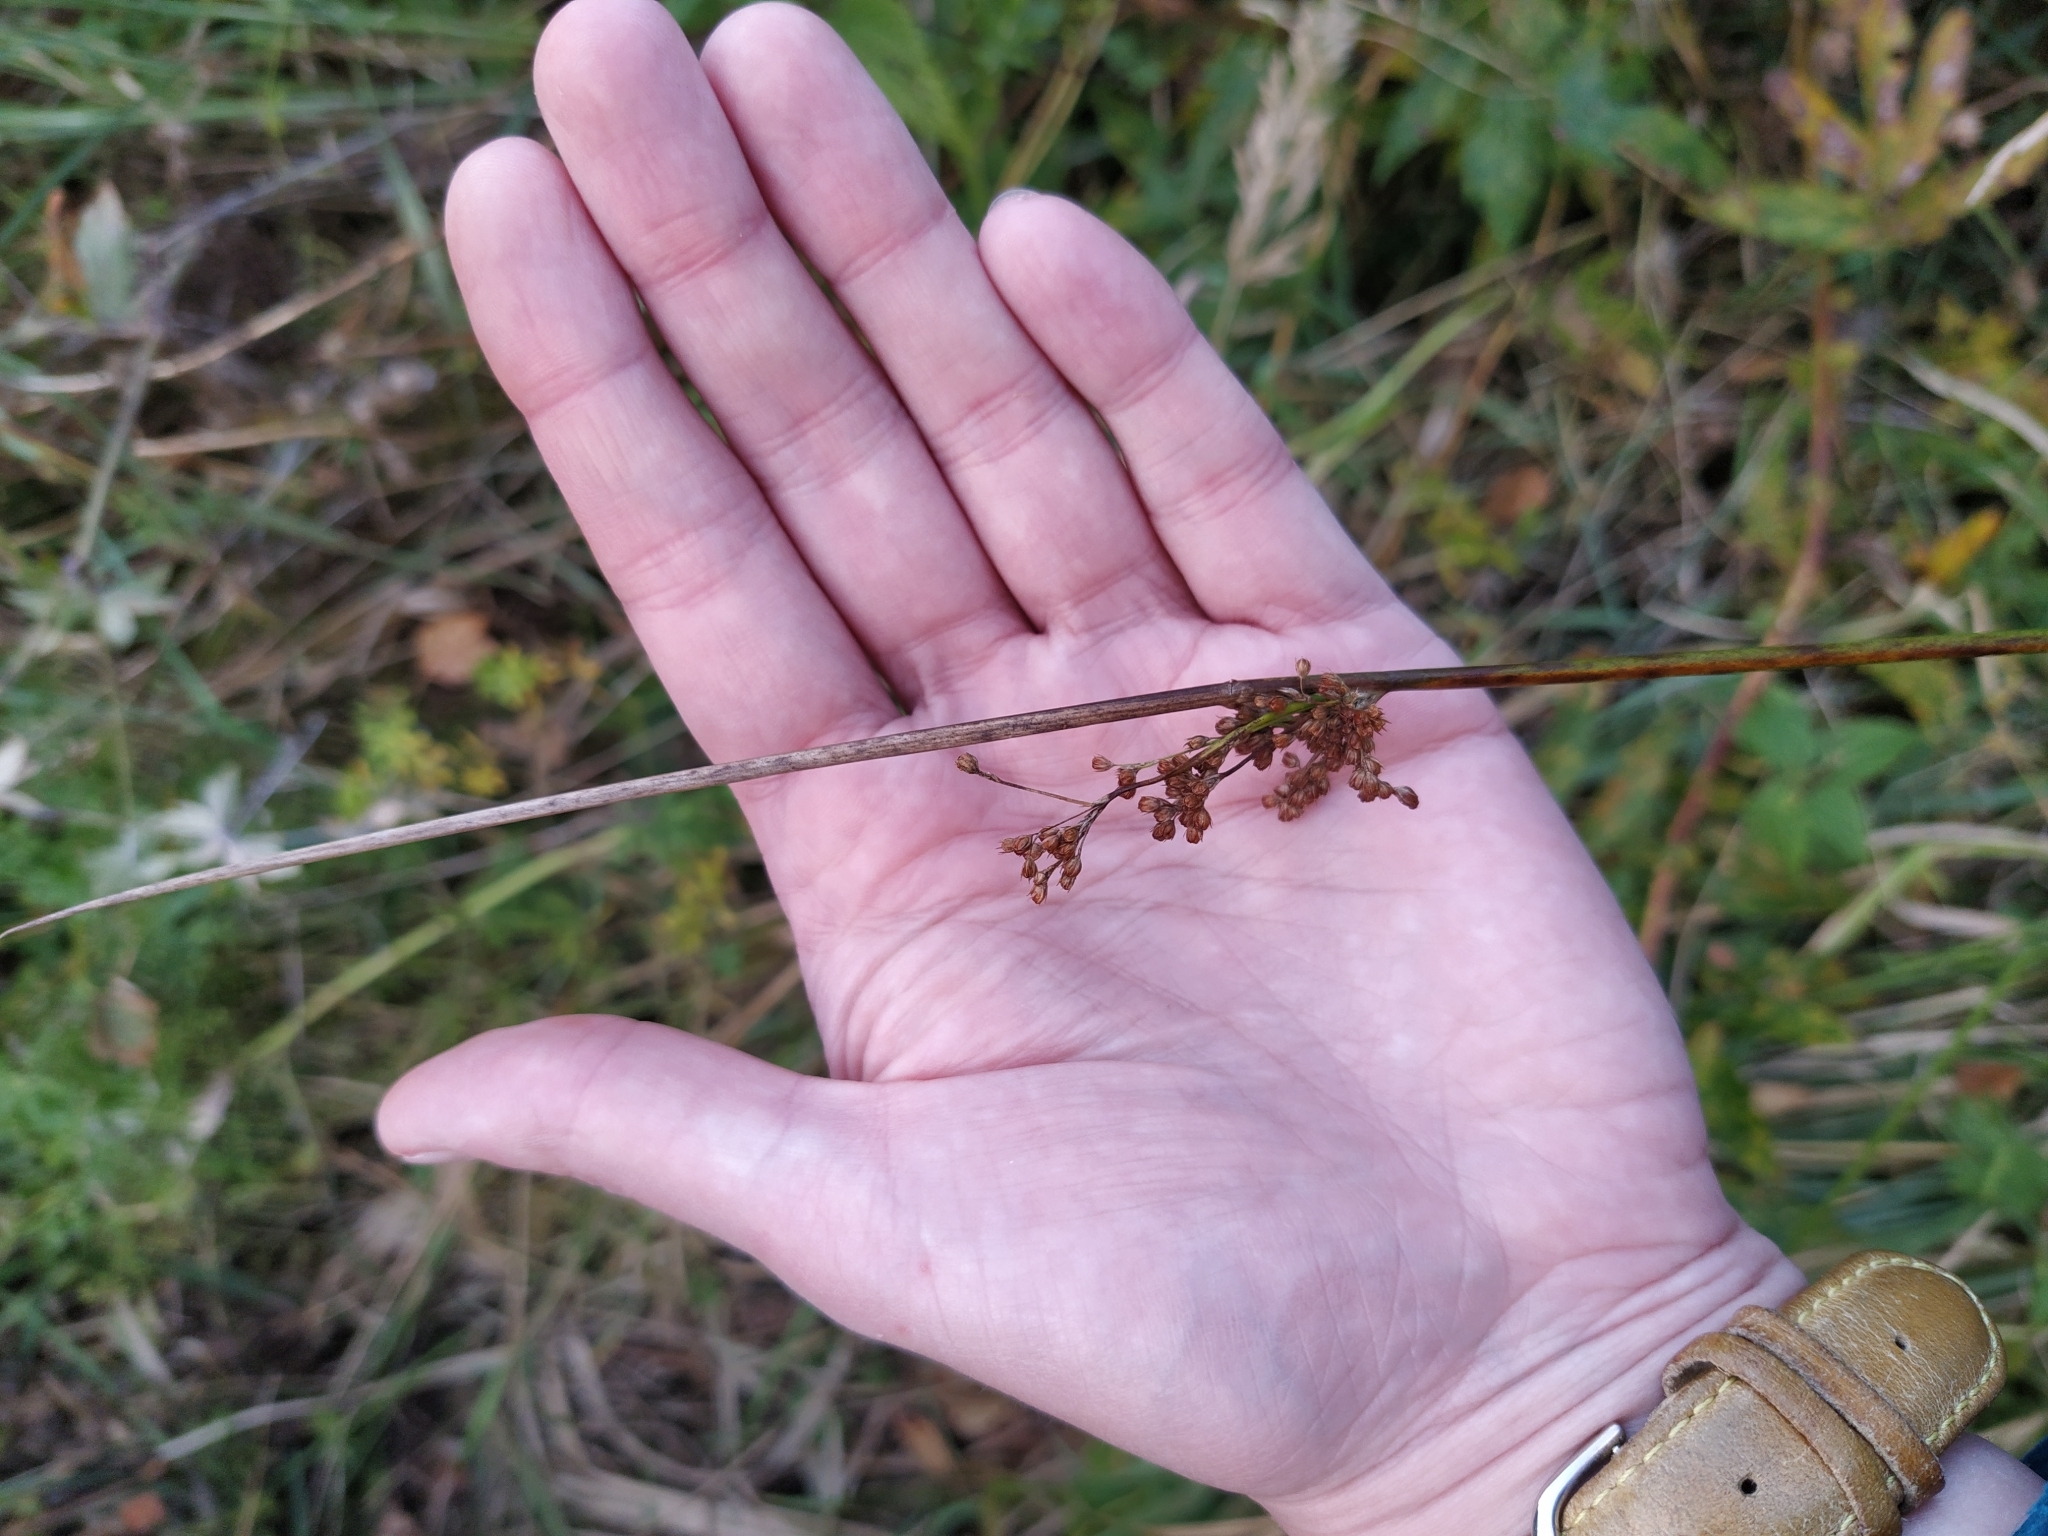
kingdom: Plantae
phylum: Tracheophyta
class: Liliopsida
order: Poales
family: Juncaceae
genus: Juncus
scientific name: Juncus effusus
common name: Soft rush
